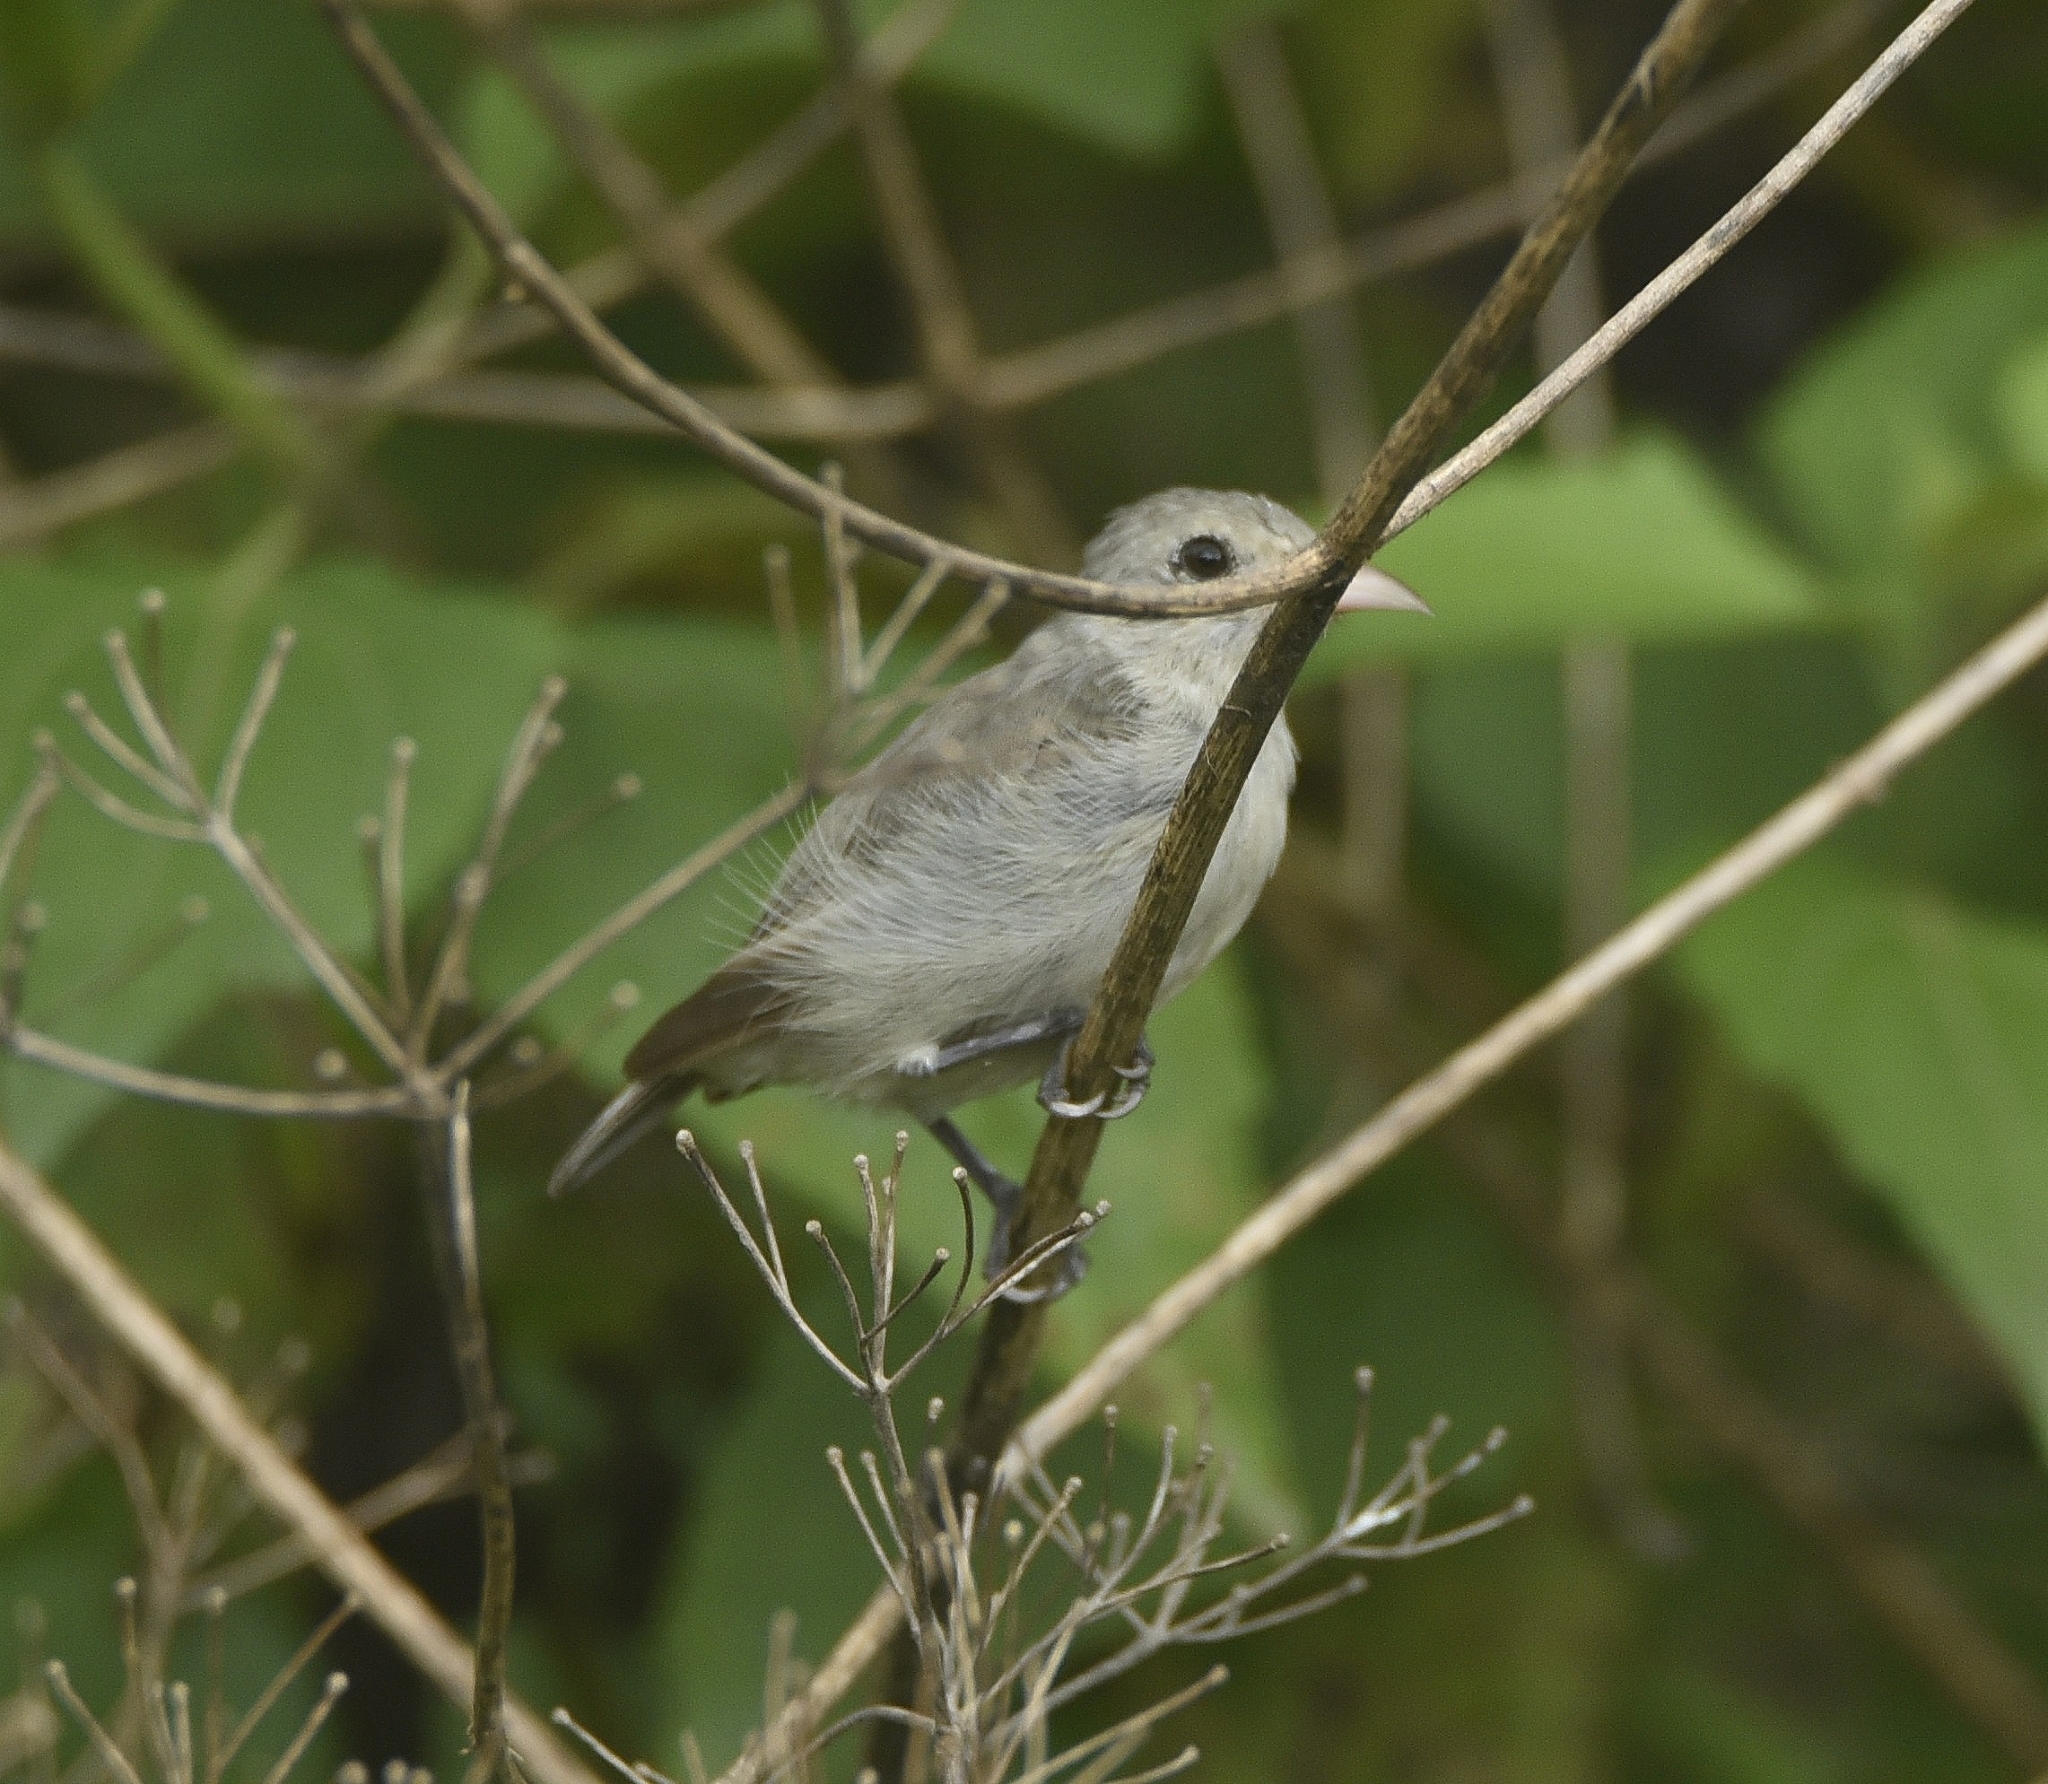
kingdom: Animalia
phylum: Chordata
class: Aves
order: Passeriformes
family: Dicaeidae
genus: Dicaeum
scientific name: Dicaeum erythrorhynchos
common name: Pale-billed flowerpecker
